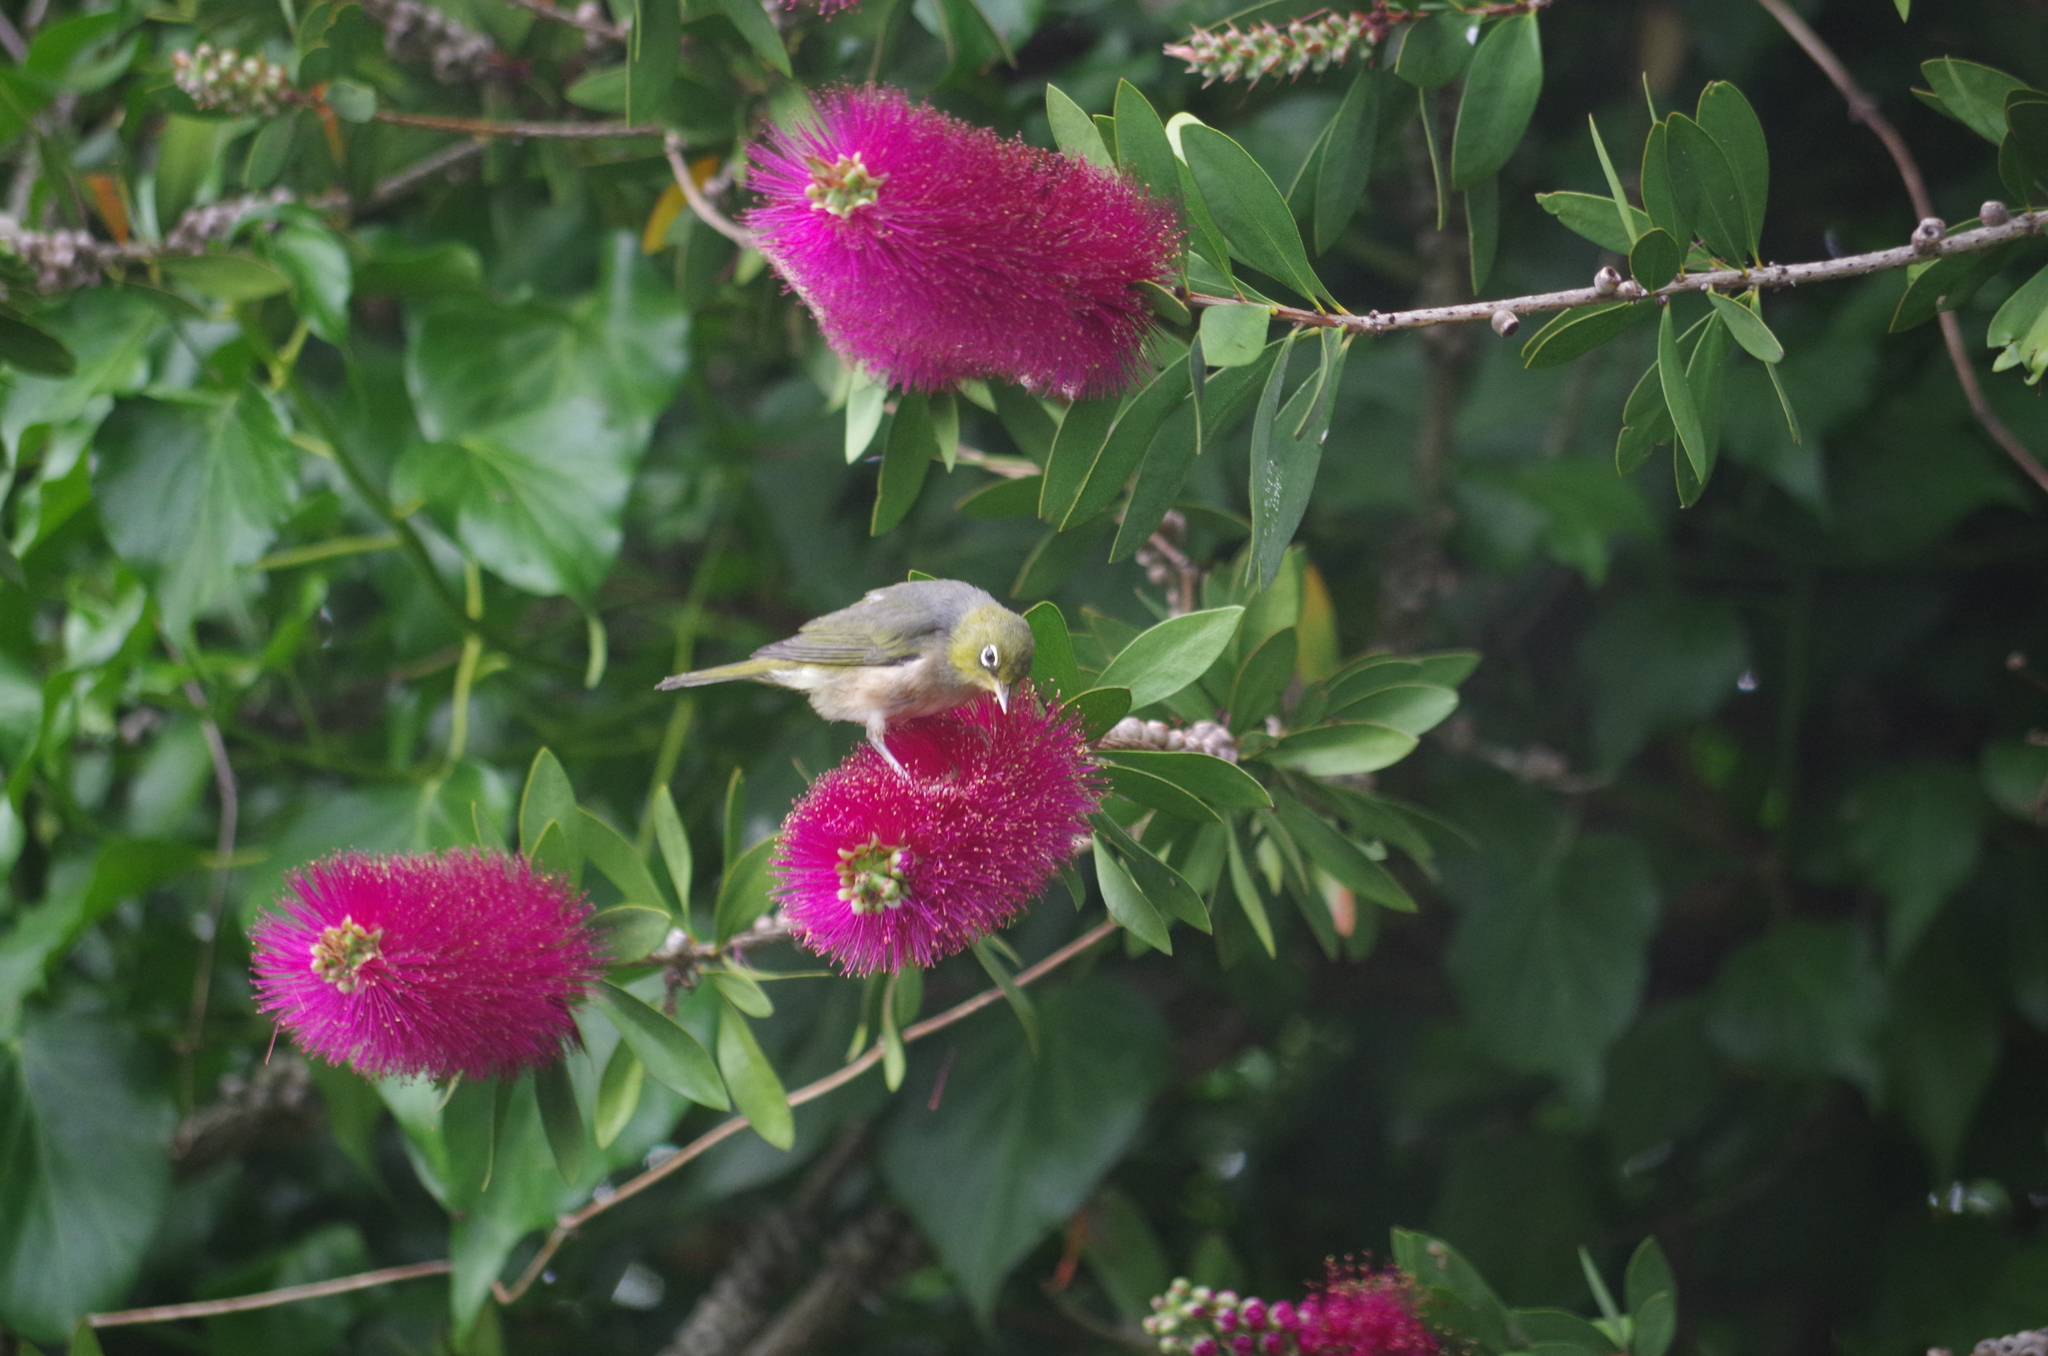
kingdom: Animalia
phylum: Chordata
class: Aves
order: Passeriformes
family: Zosteropidae
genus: Zosterops
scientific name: Zosterops lateralis
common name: Silvereye
